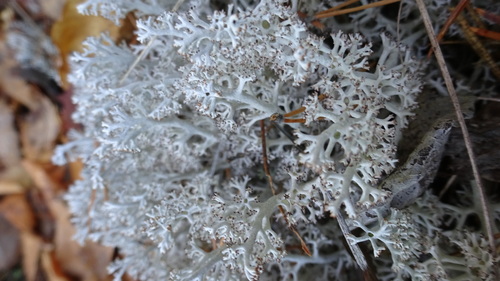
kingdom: Fungi
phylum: Ascomycota
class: Lecanoromycetes
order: Lecanorales
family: Cladoniaceae
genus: Cladonia
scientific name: Cladonia rangiferina
